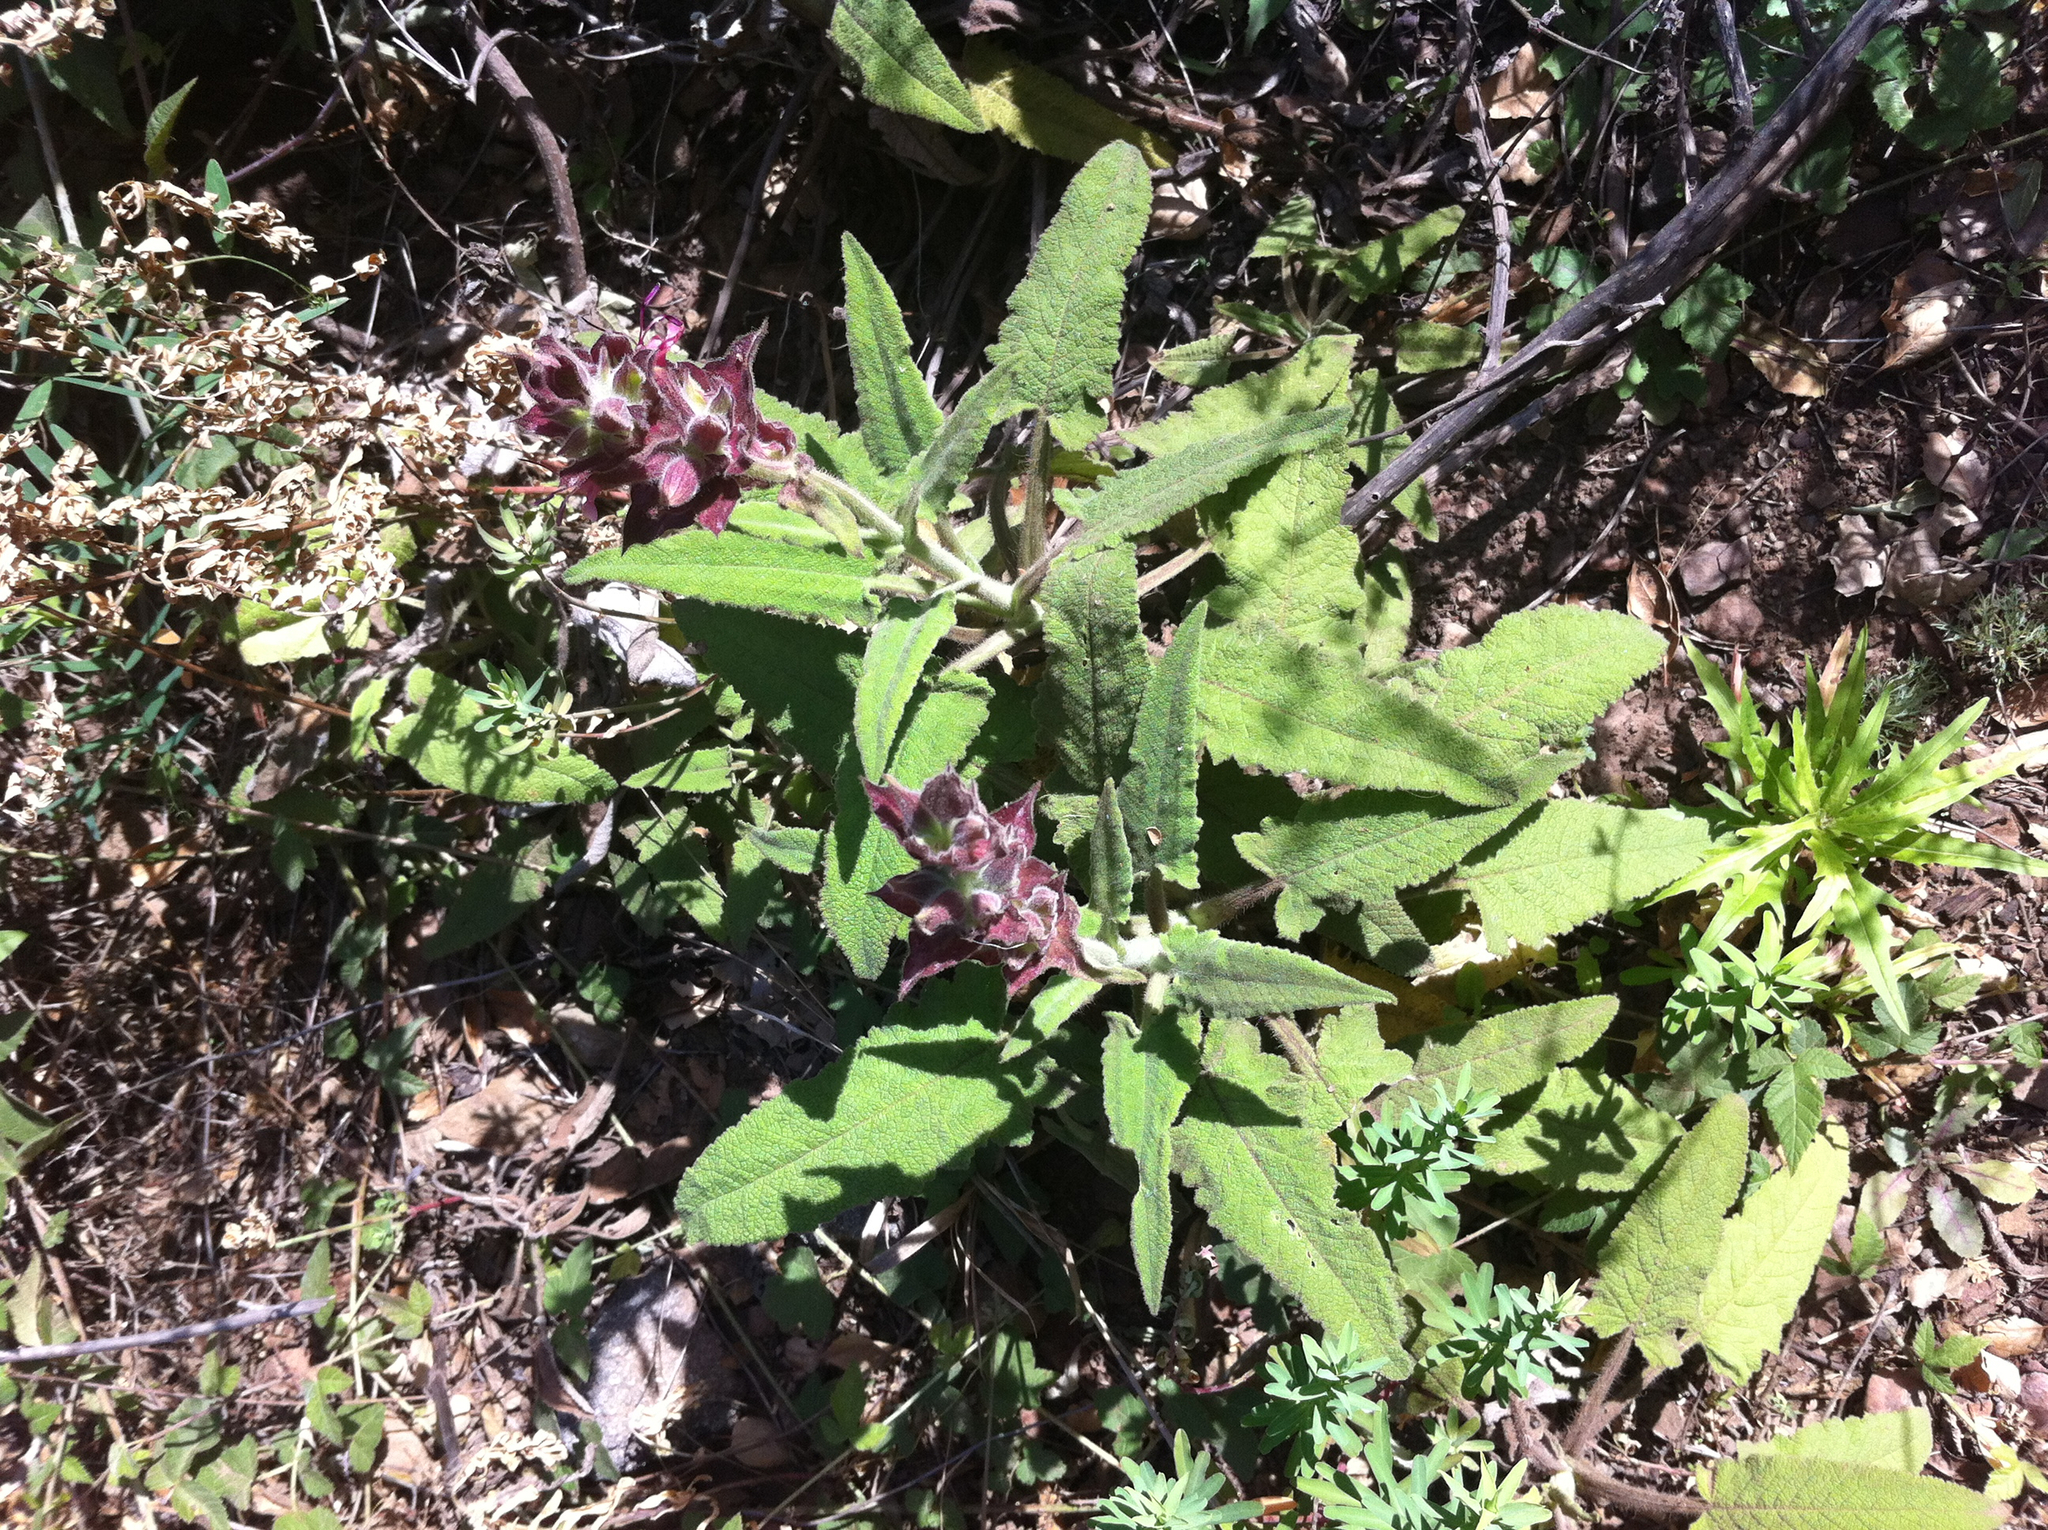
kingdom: Plantae
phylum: Tracheophyta
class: Magnoliopsida
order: Lamiales
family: Lamiaceae
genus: Salvia
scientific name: Salvia spathacea
